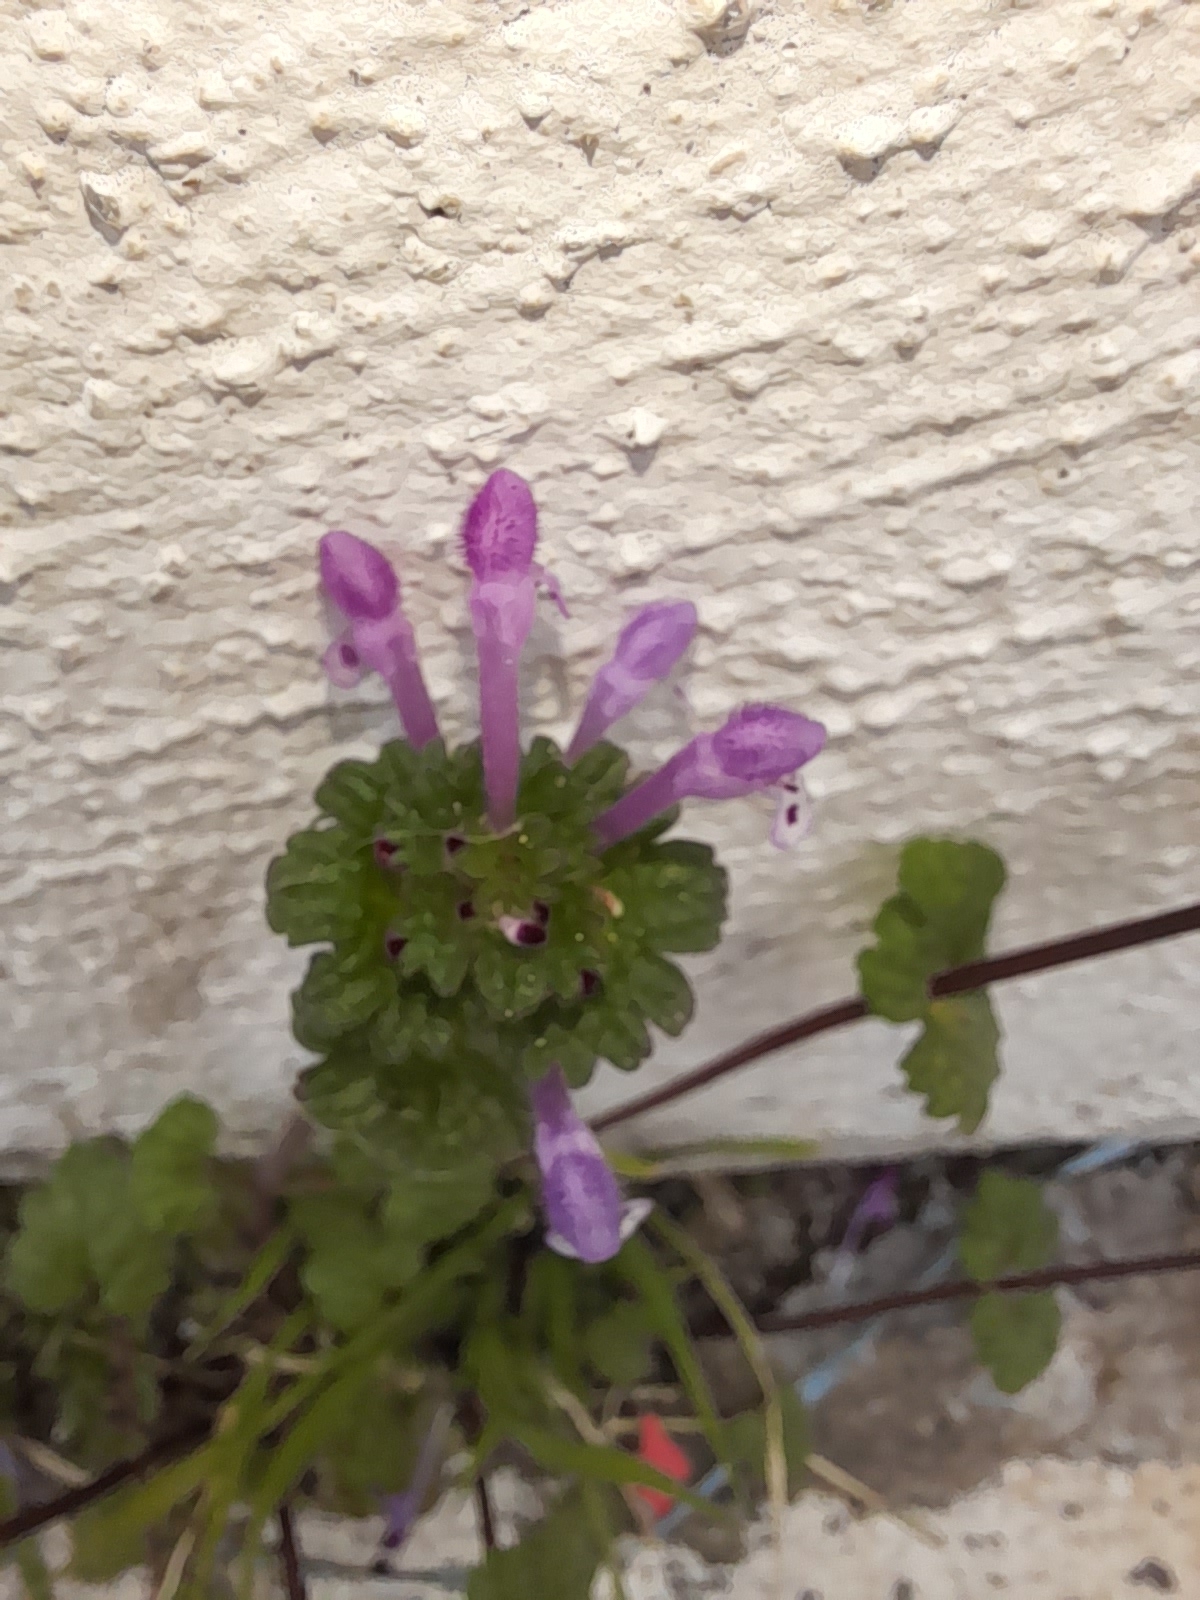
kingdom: Plantae
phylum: Tracheophyta
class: Magnoliopsida
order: Lamiales
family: Lamiaceae
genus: Lamium
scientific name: Lamium amplexicaule
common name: Henbit dead-nettle
